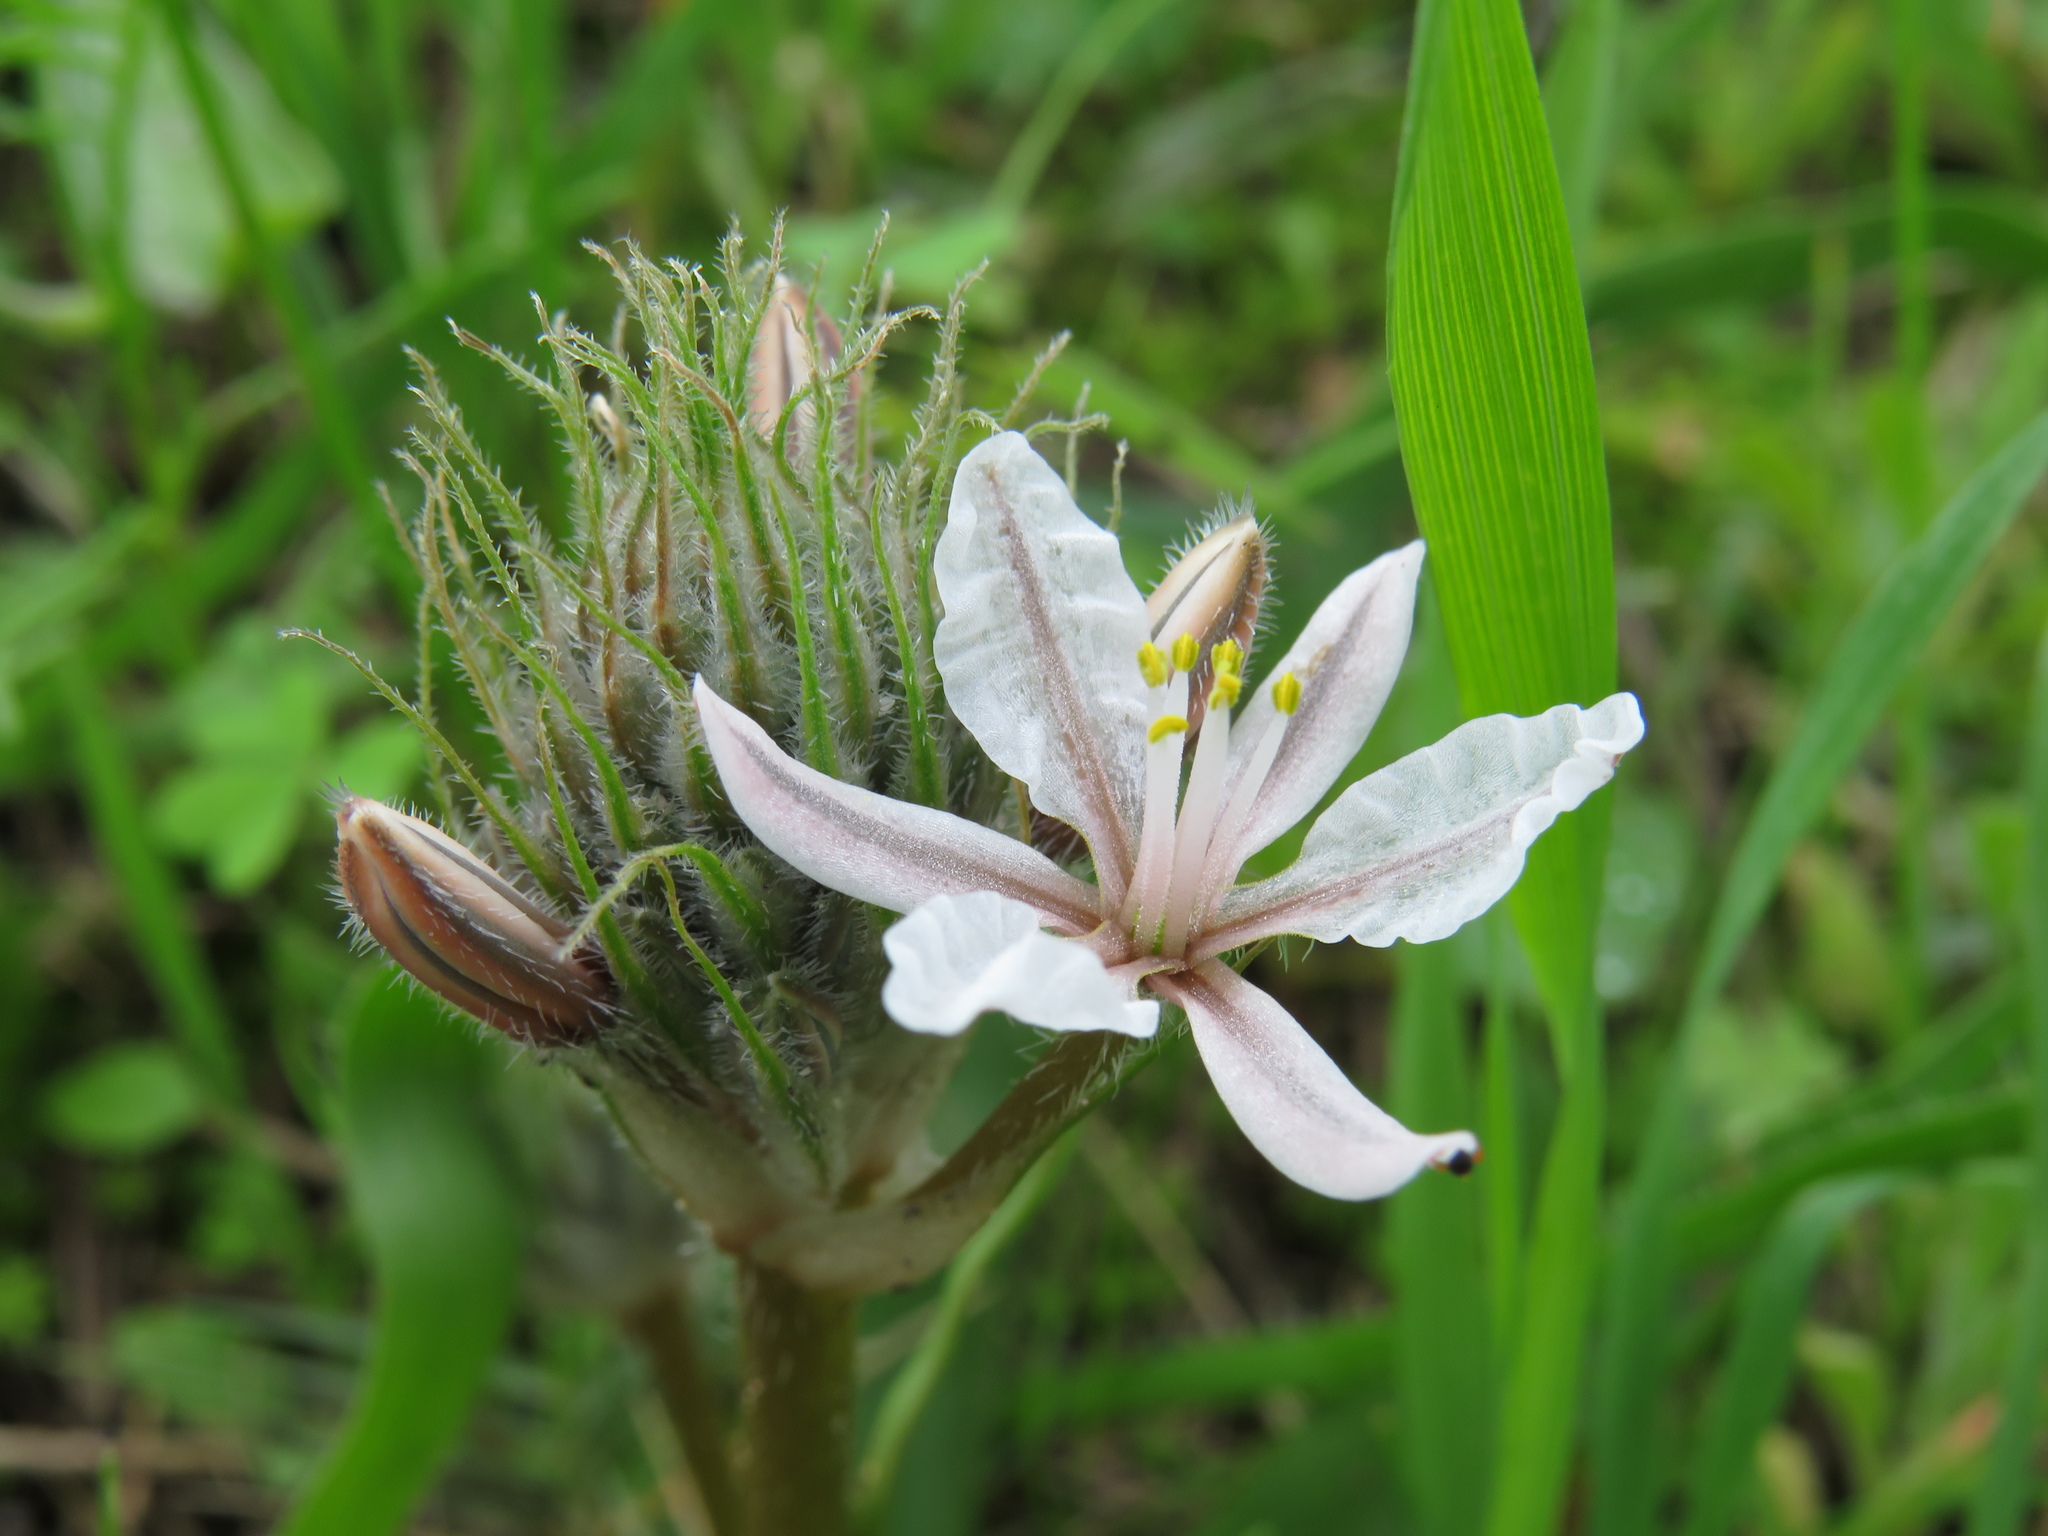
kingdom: Plantae
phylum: Tracheophyta
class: Liliopsida
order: Asparagales
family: Asphodelaceae
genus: Trachyandra
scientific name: Trachyandra hispida
